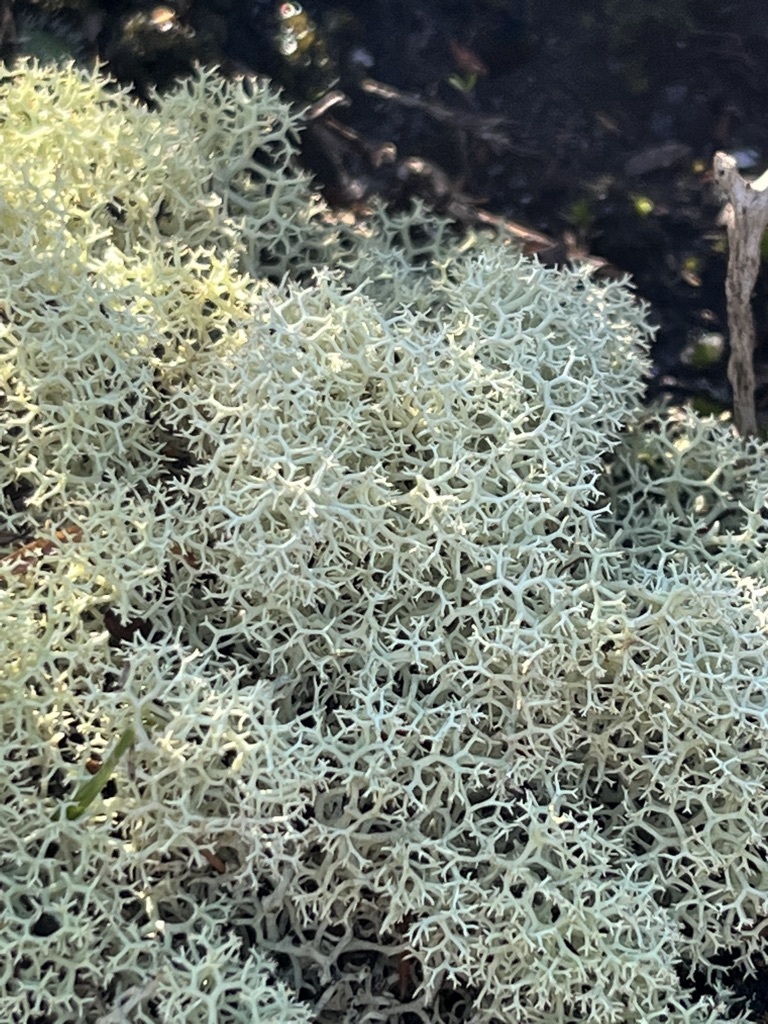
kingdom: Fungi
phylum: Ascomycota
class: Lecanoromycetes
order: Lecanorales
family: Cladoniaceae
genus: Cladonia
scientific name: Cladonia confusa
